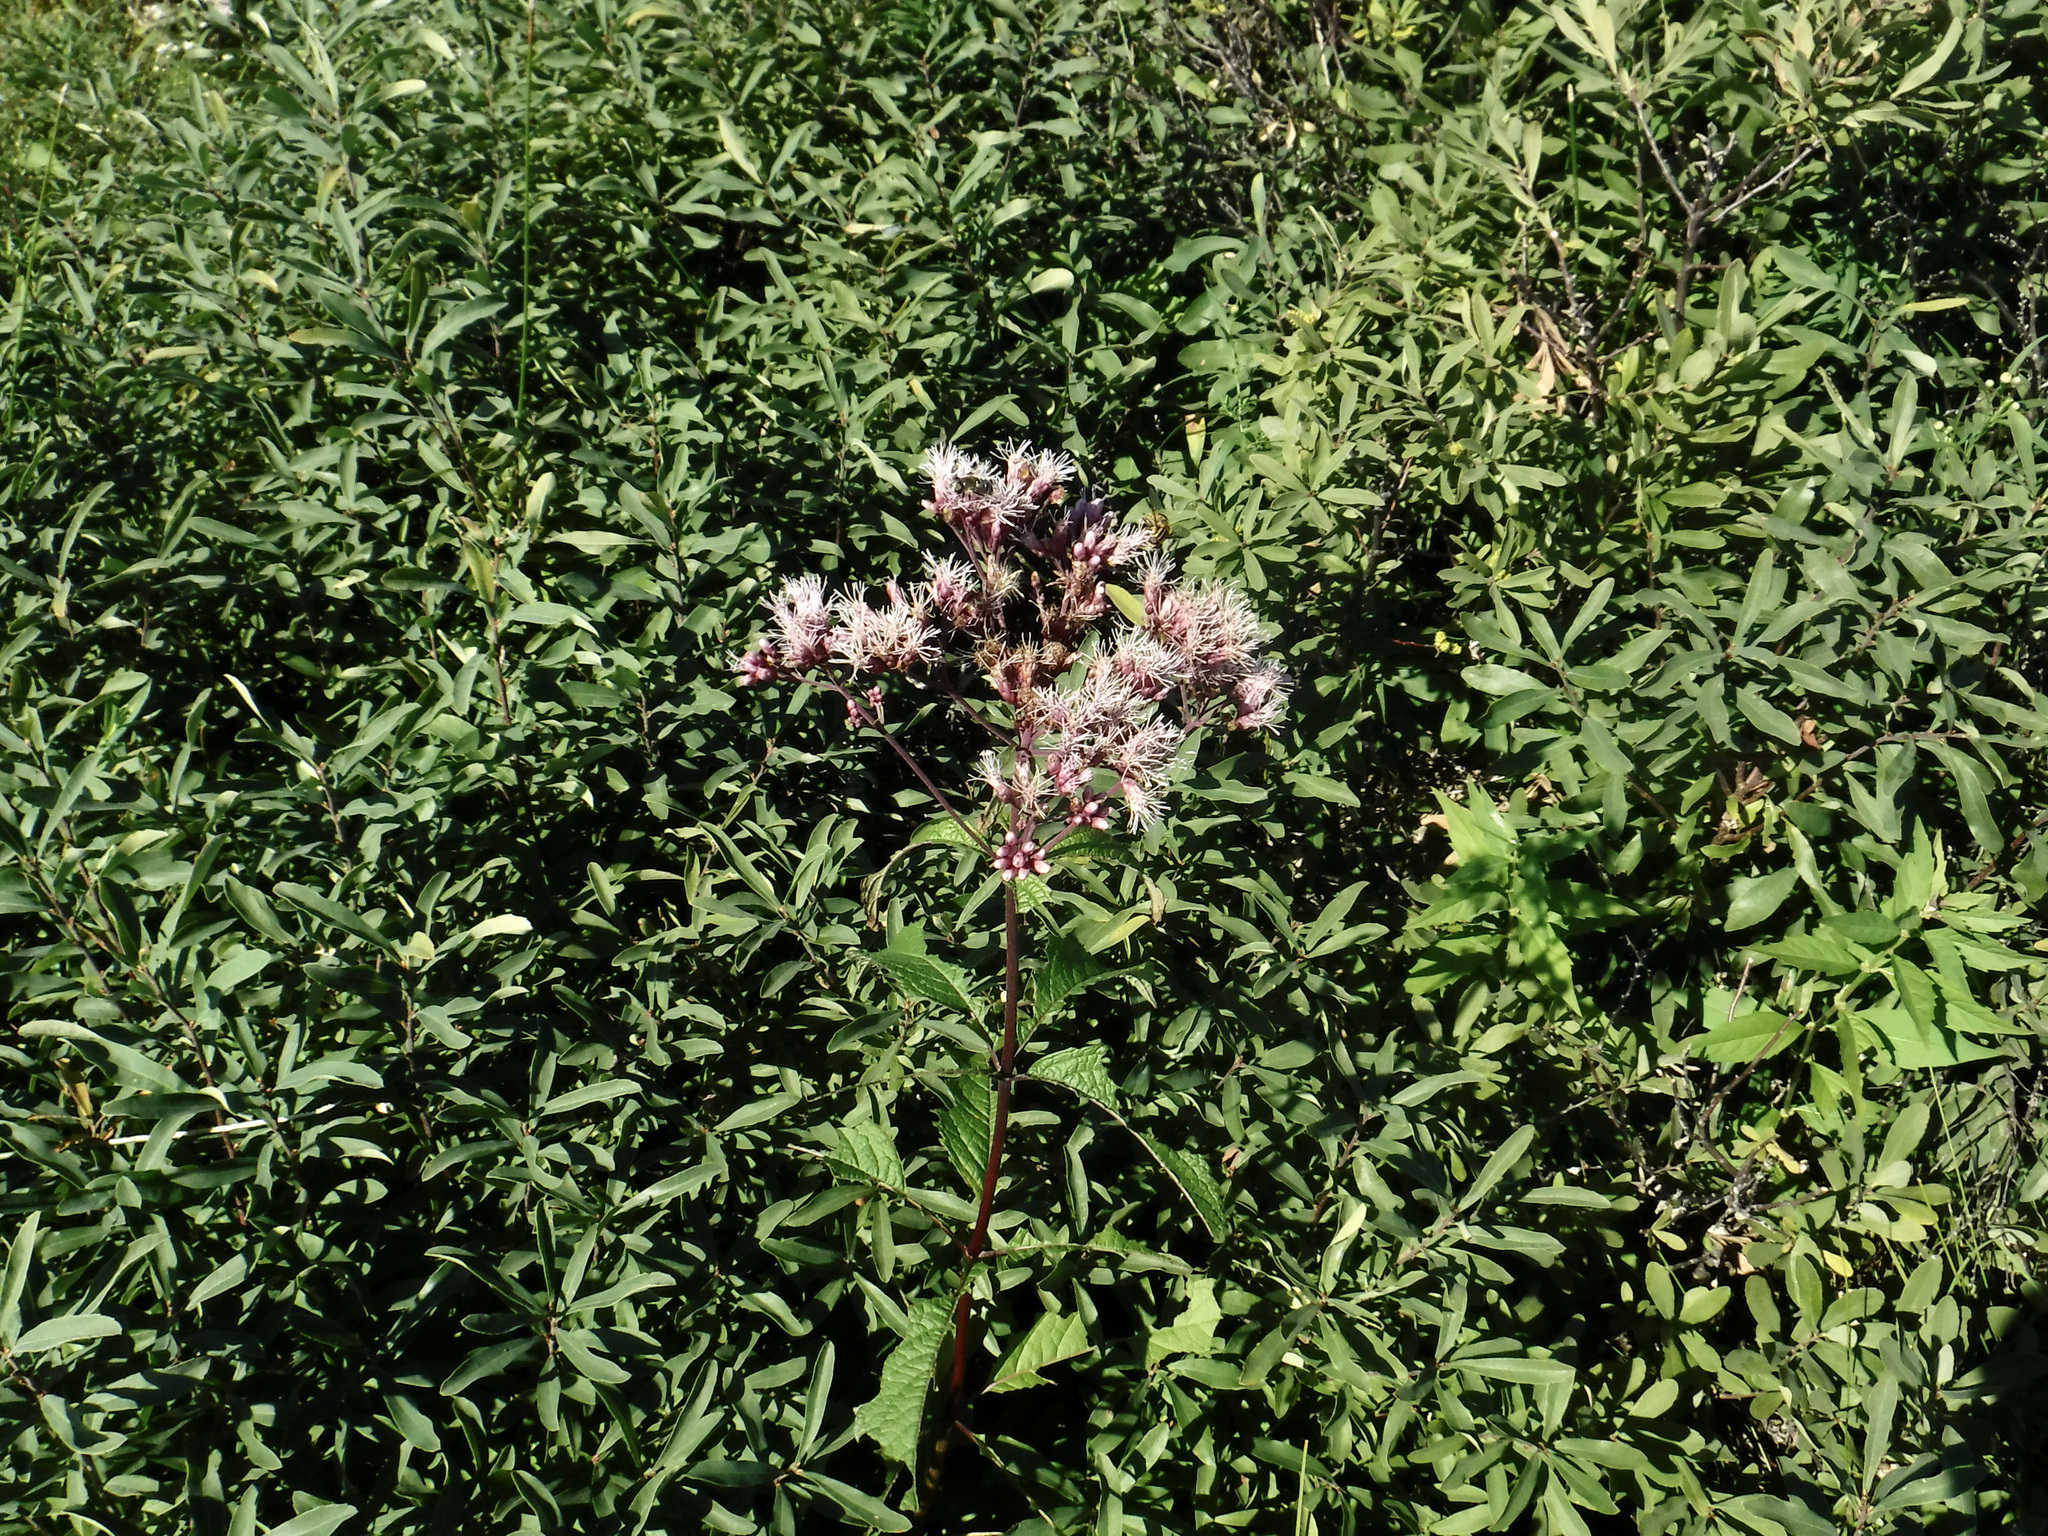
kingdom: Plantae
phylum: Tracheophyta
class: Magnoliopsida
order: Asterales
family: Asteraceae
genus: Eutrochium
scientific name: Eutrochium maculatum
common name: Spotted joe pye weed
